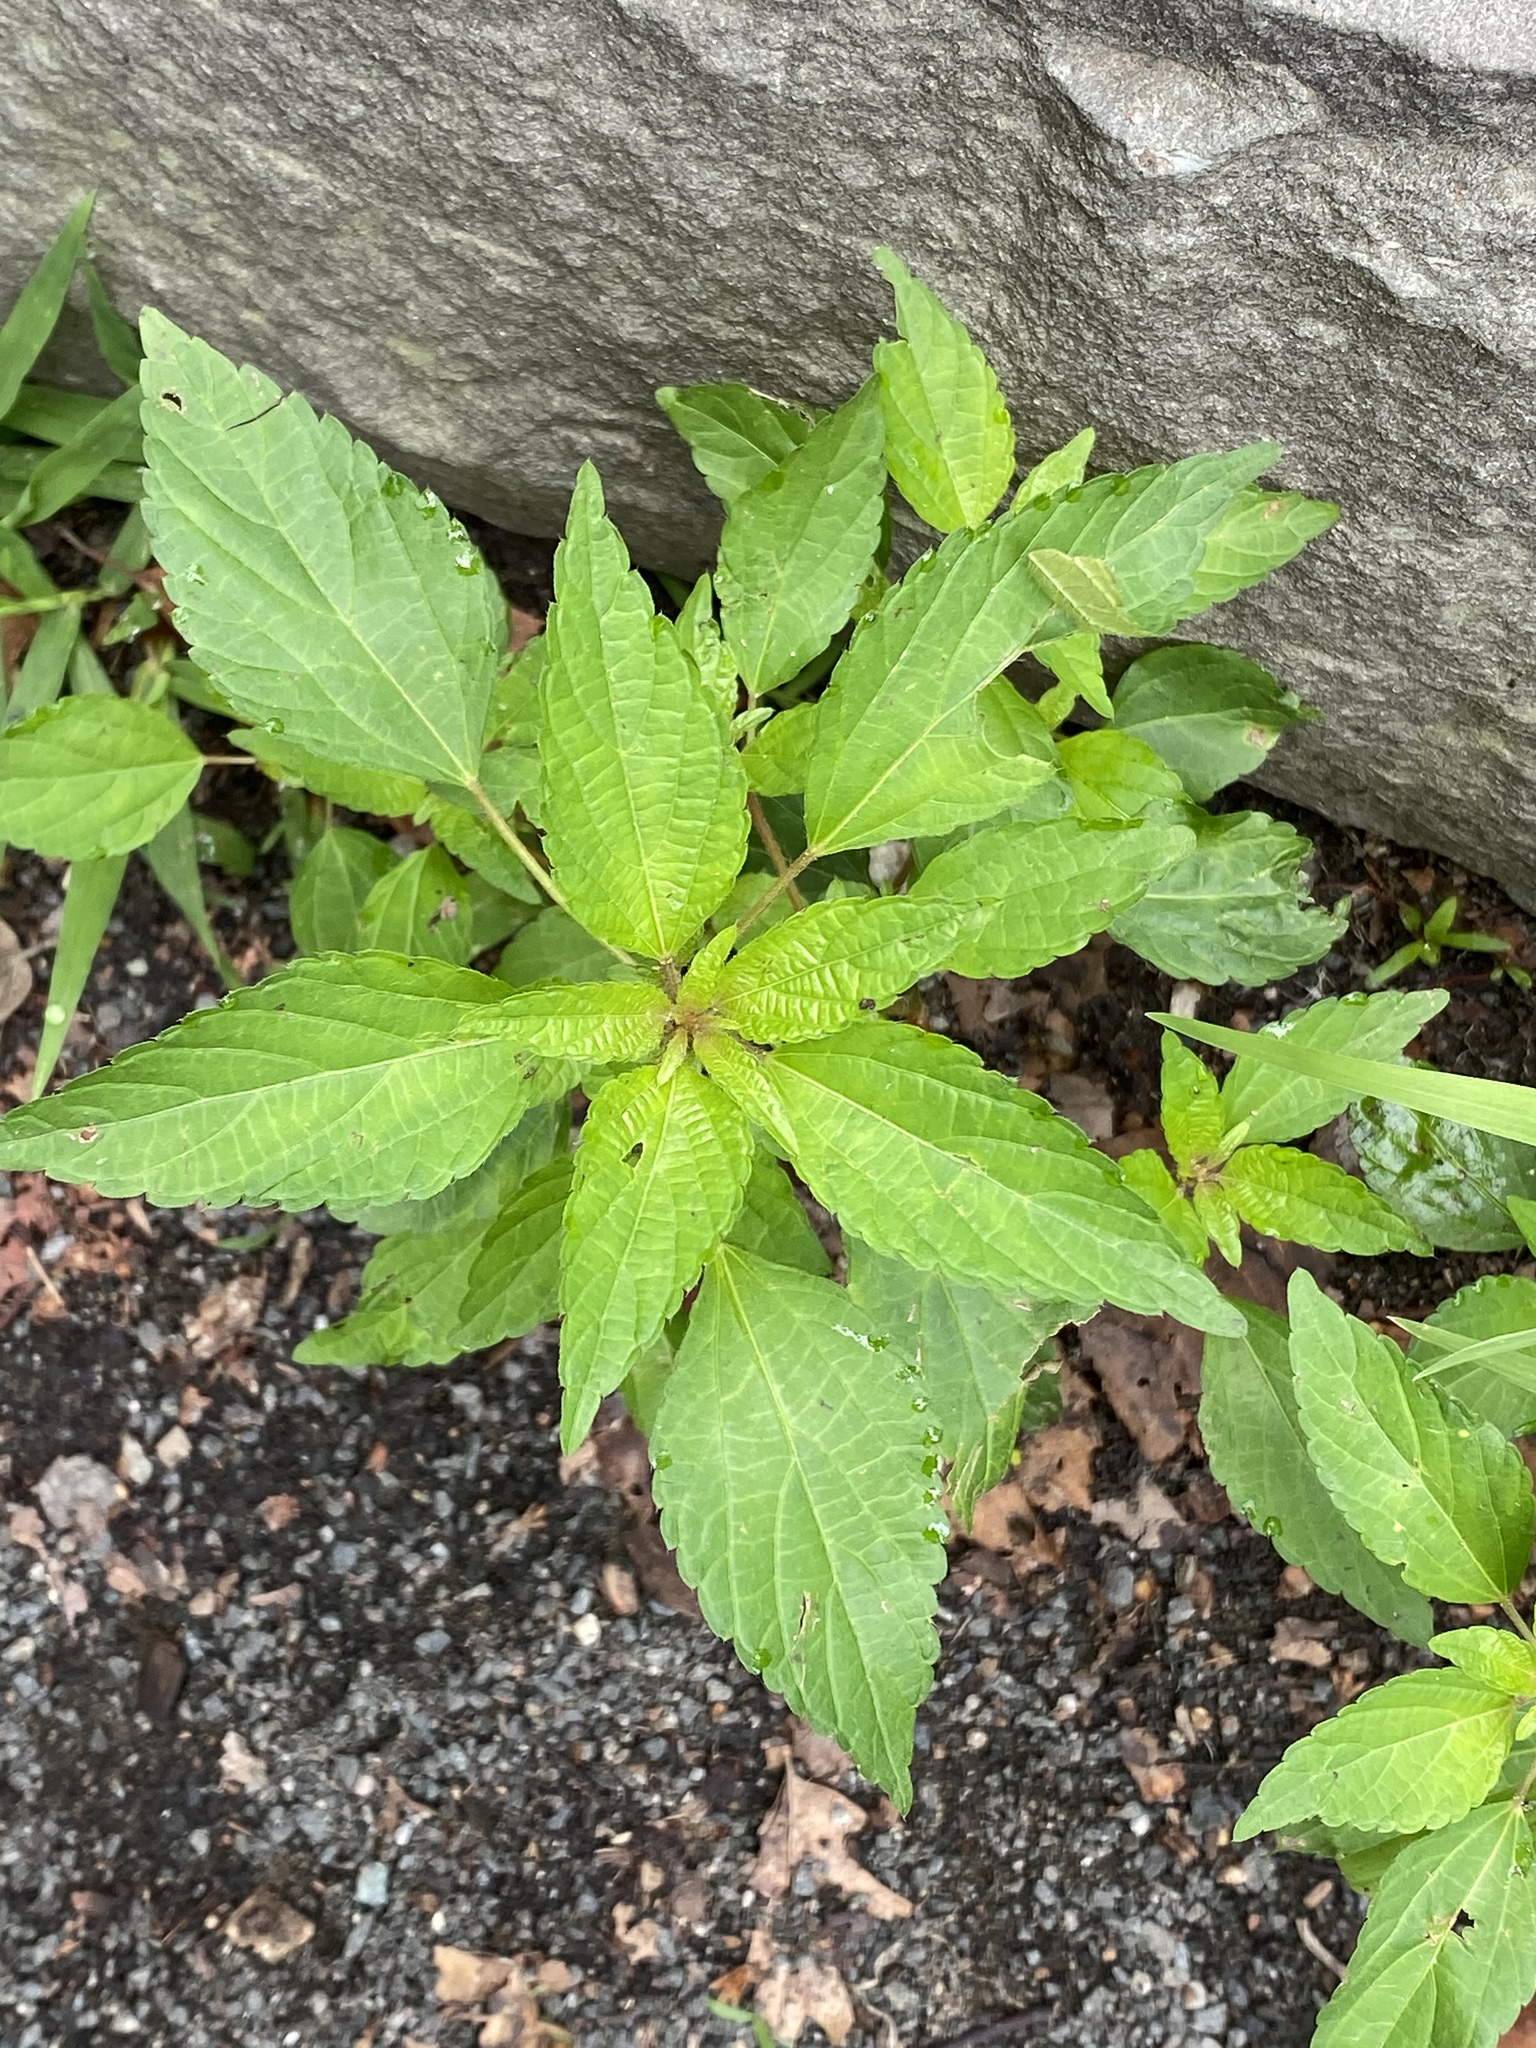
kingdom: Plantae
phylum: Tracheophyta
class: Magnoliopsida
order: Malpighiales
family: Euphorbiaceae
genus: Acalypha
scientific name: Acalypha rhomboidea
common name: Rhombic copperleaf
